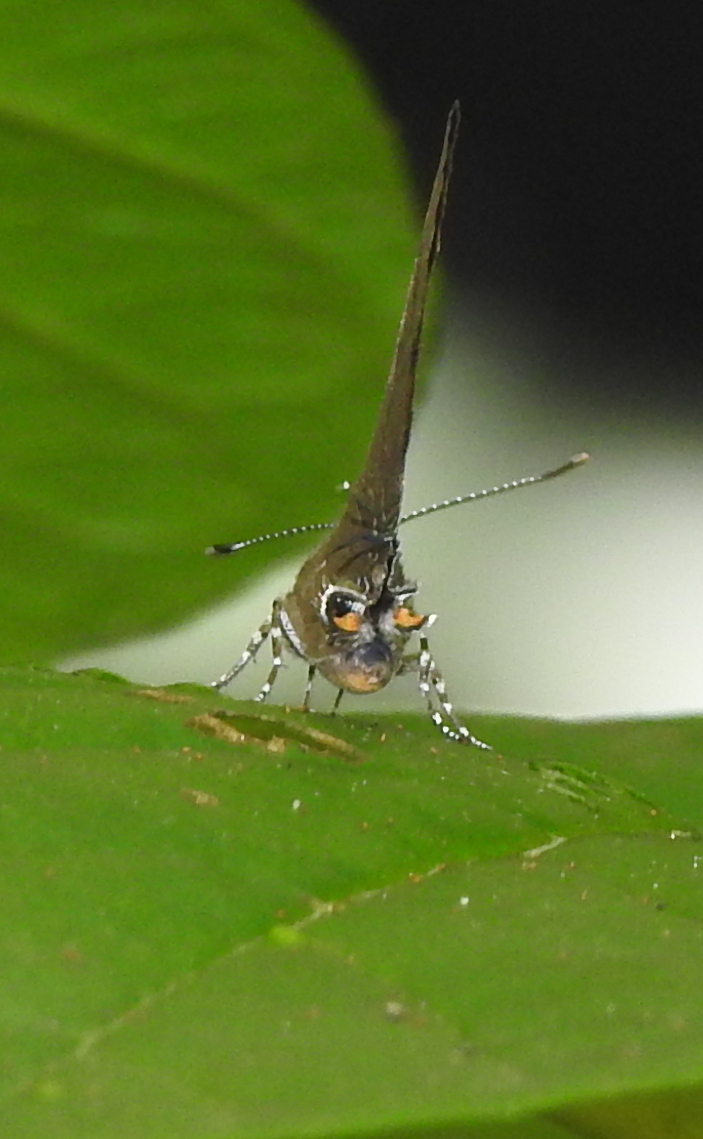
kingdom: Animalia
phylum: Arthropoda
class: Insecta
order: Lepidoptera
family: Lycaenidae
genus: Rapala
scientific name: Rapala varuna
